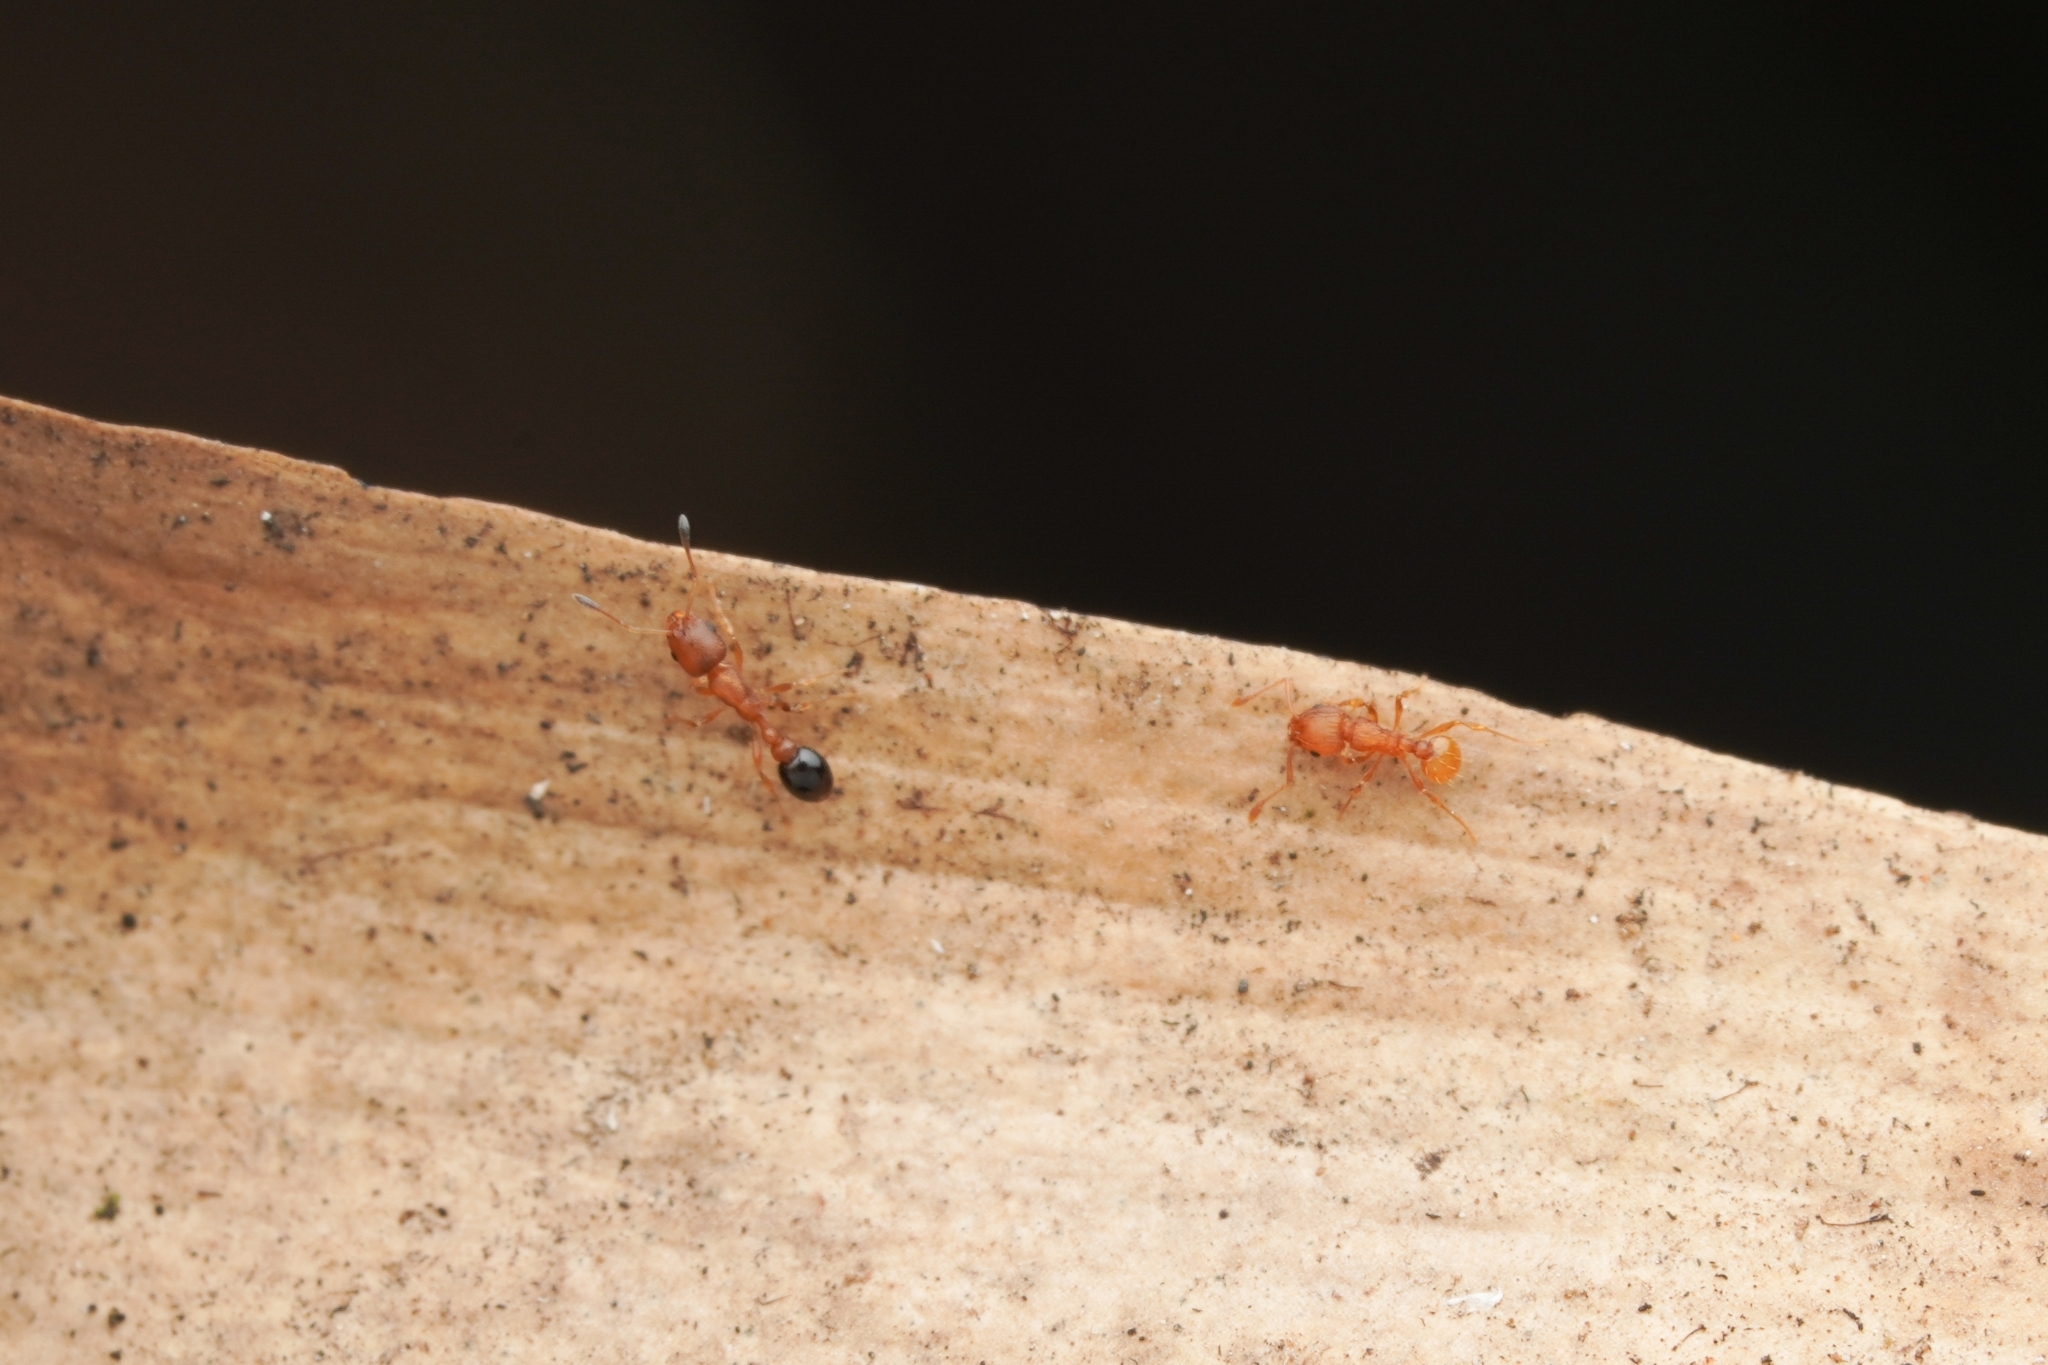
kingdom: Animalia
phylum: Arthropoda
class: Insecta
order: Hymenoptera
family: Formicidae
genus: Cardiocondyla
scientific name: Cardiocondyla emeryi
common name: Ant
